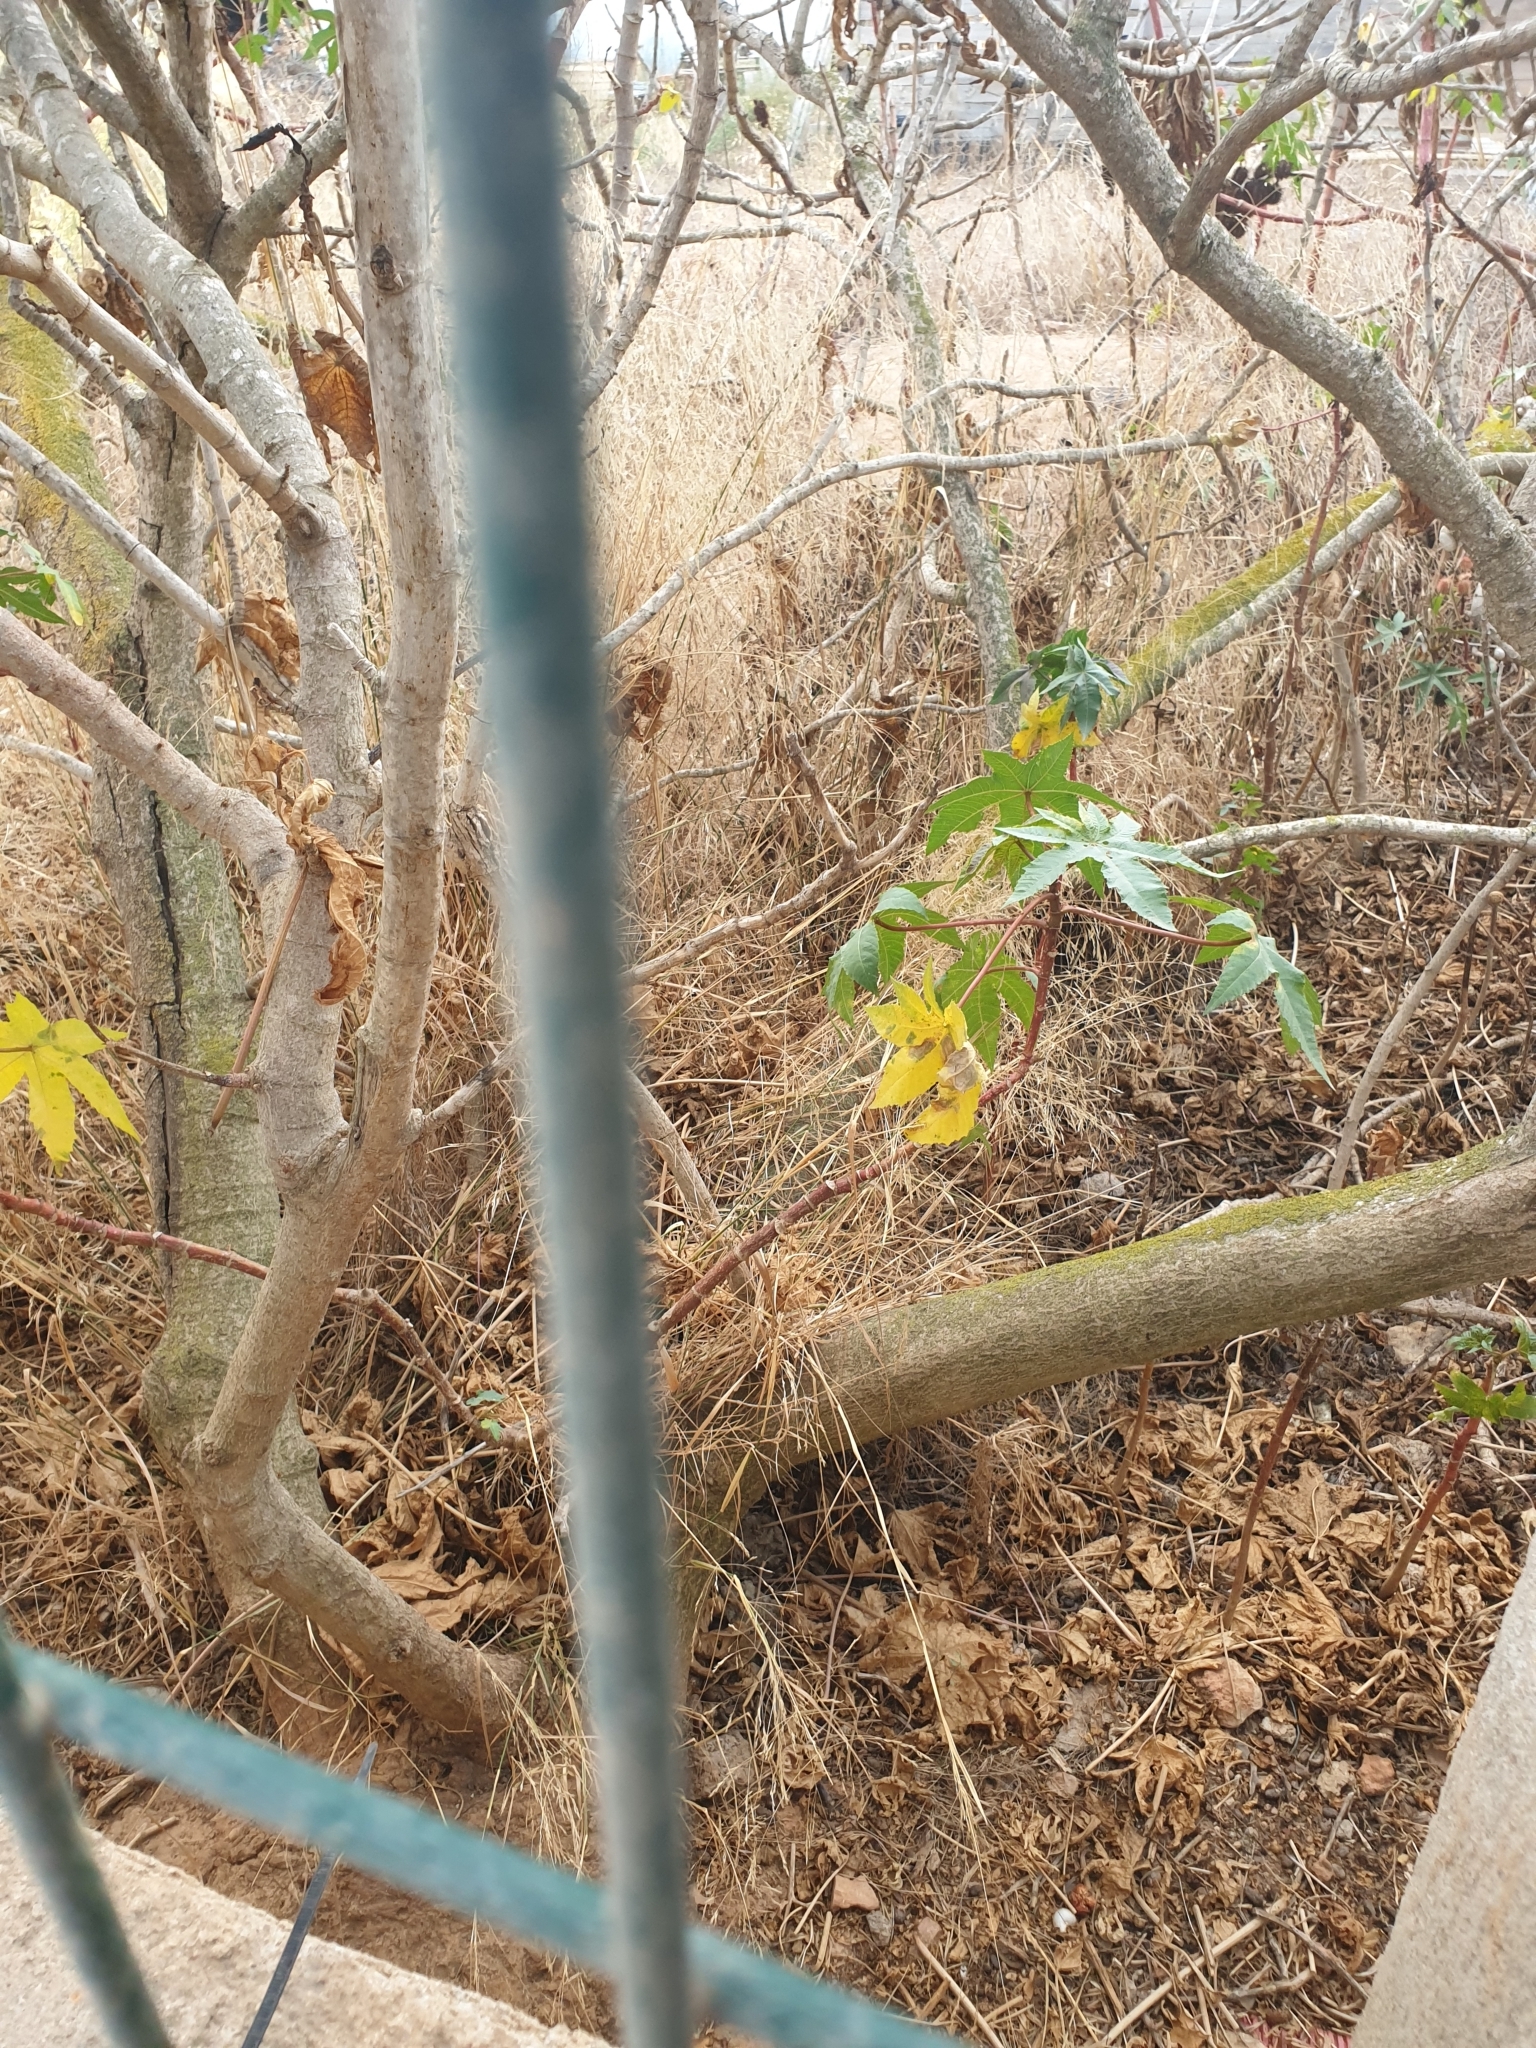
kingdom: Plantae
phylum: Tracheophyta
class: Magnoliopsida
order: Malpighiales
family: Euphorbiaceae
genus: Ricinus
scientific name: Ricinus communis
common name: Castor-oil-plant
